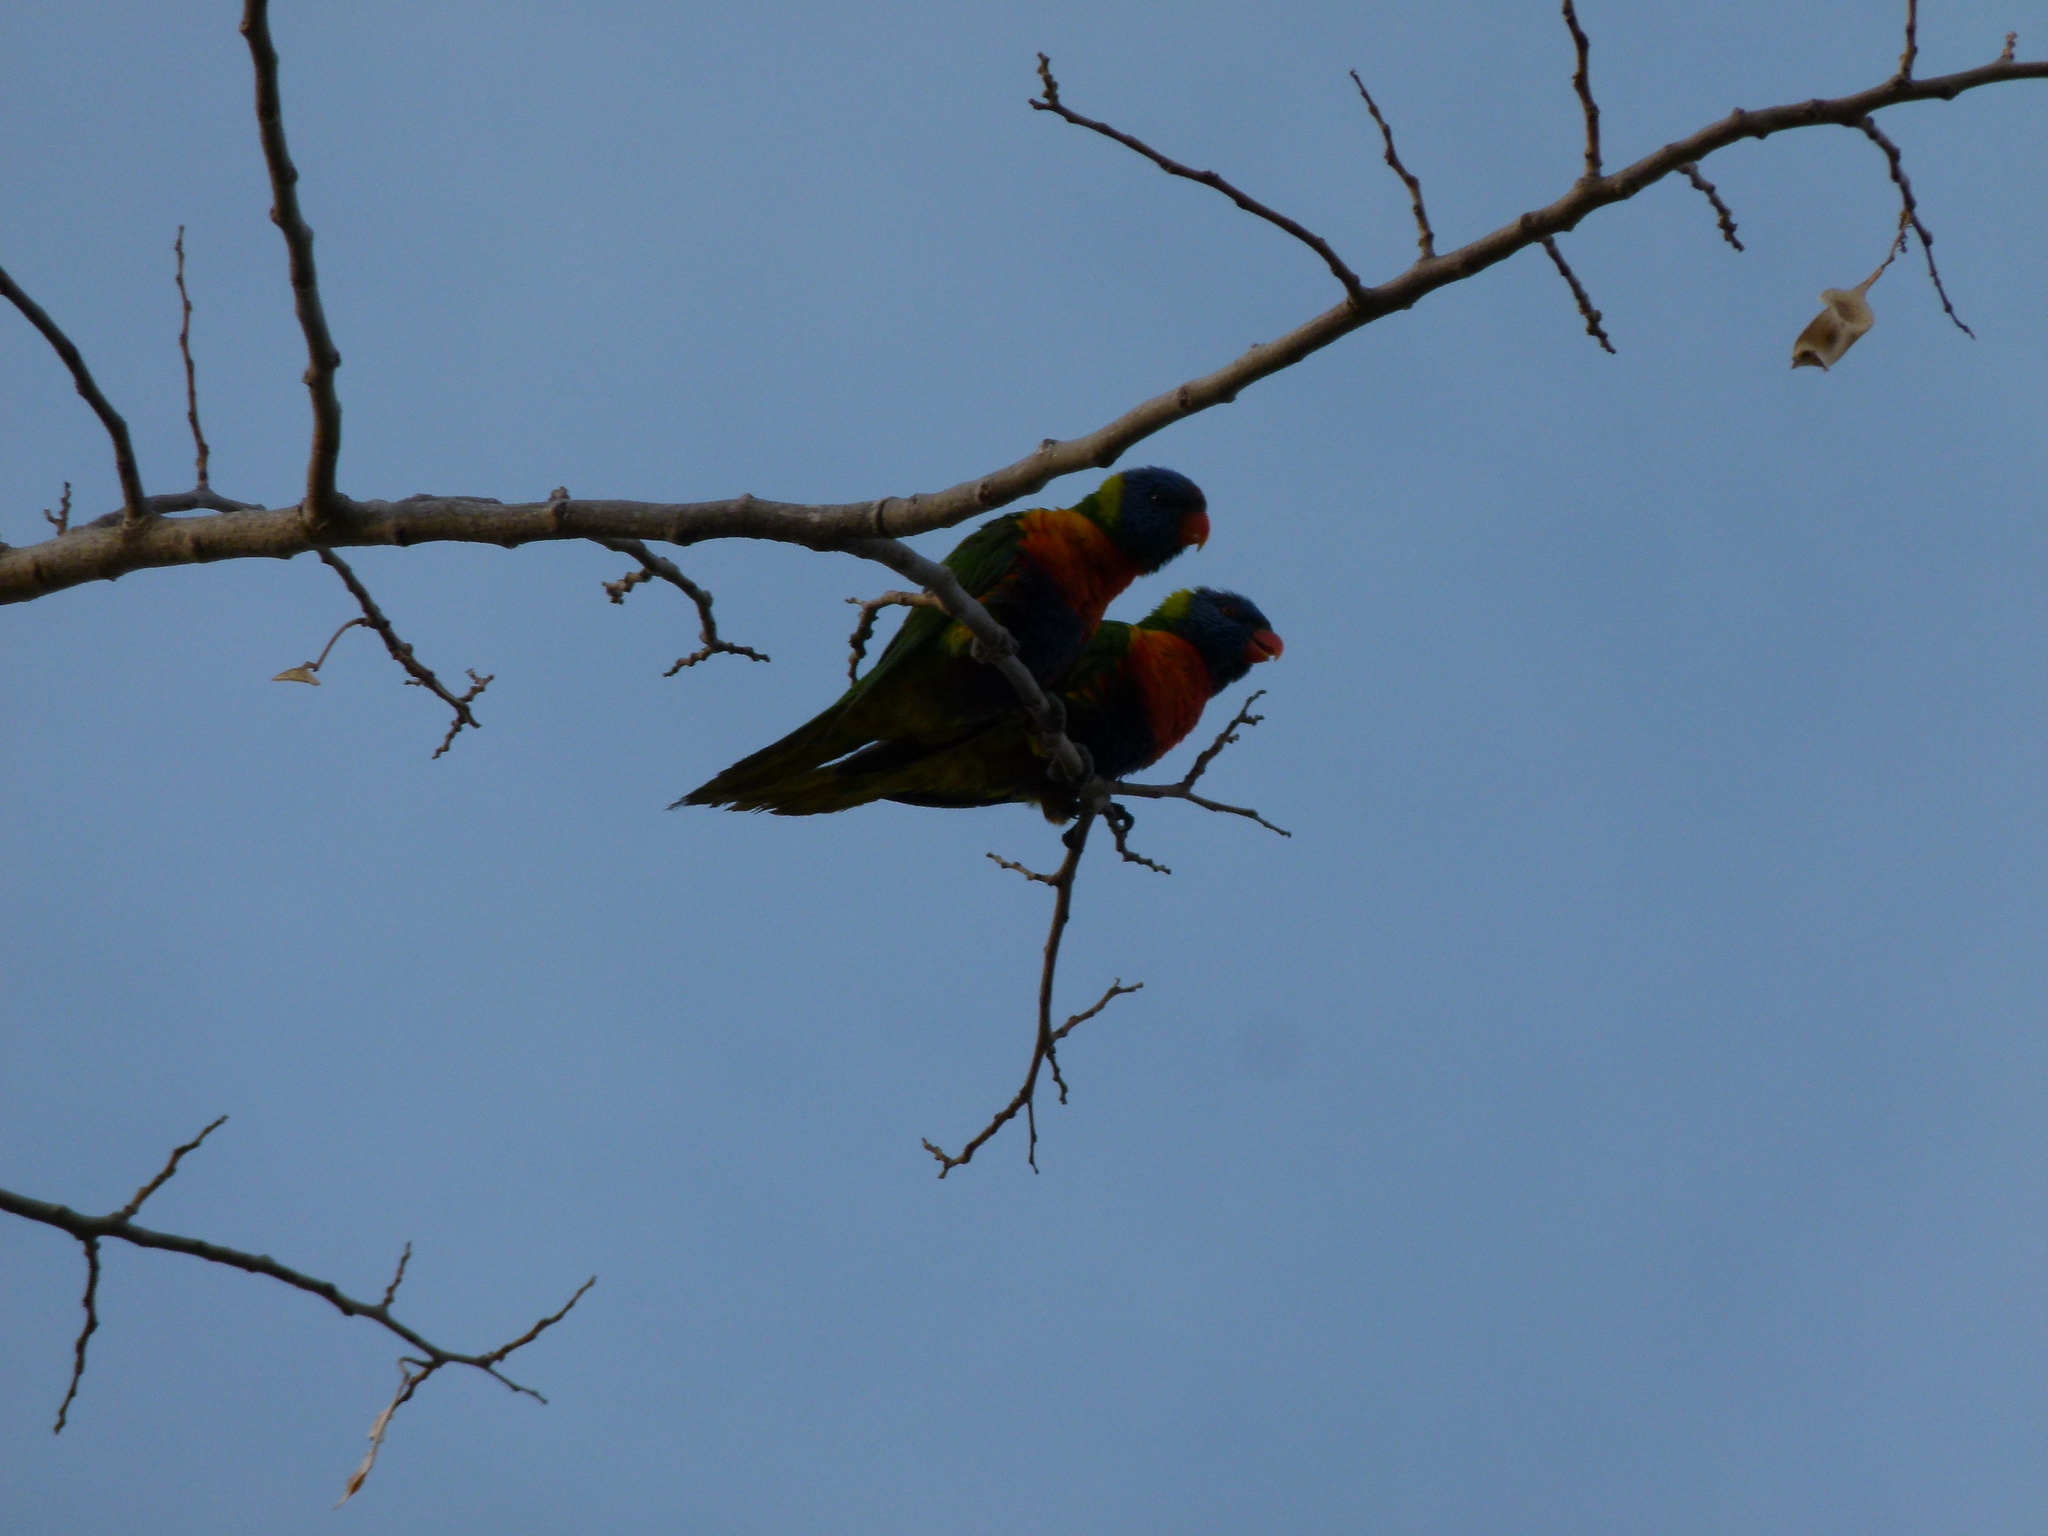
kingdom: Animalia
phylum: Chordata
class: Aves
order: Psittaciformes
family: Psittacidae
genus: Trichoglossus
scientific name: Trichoglossus haematodus
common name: Coconut lorikeet
